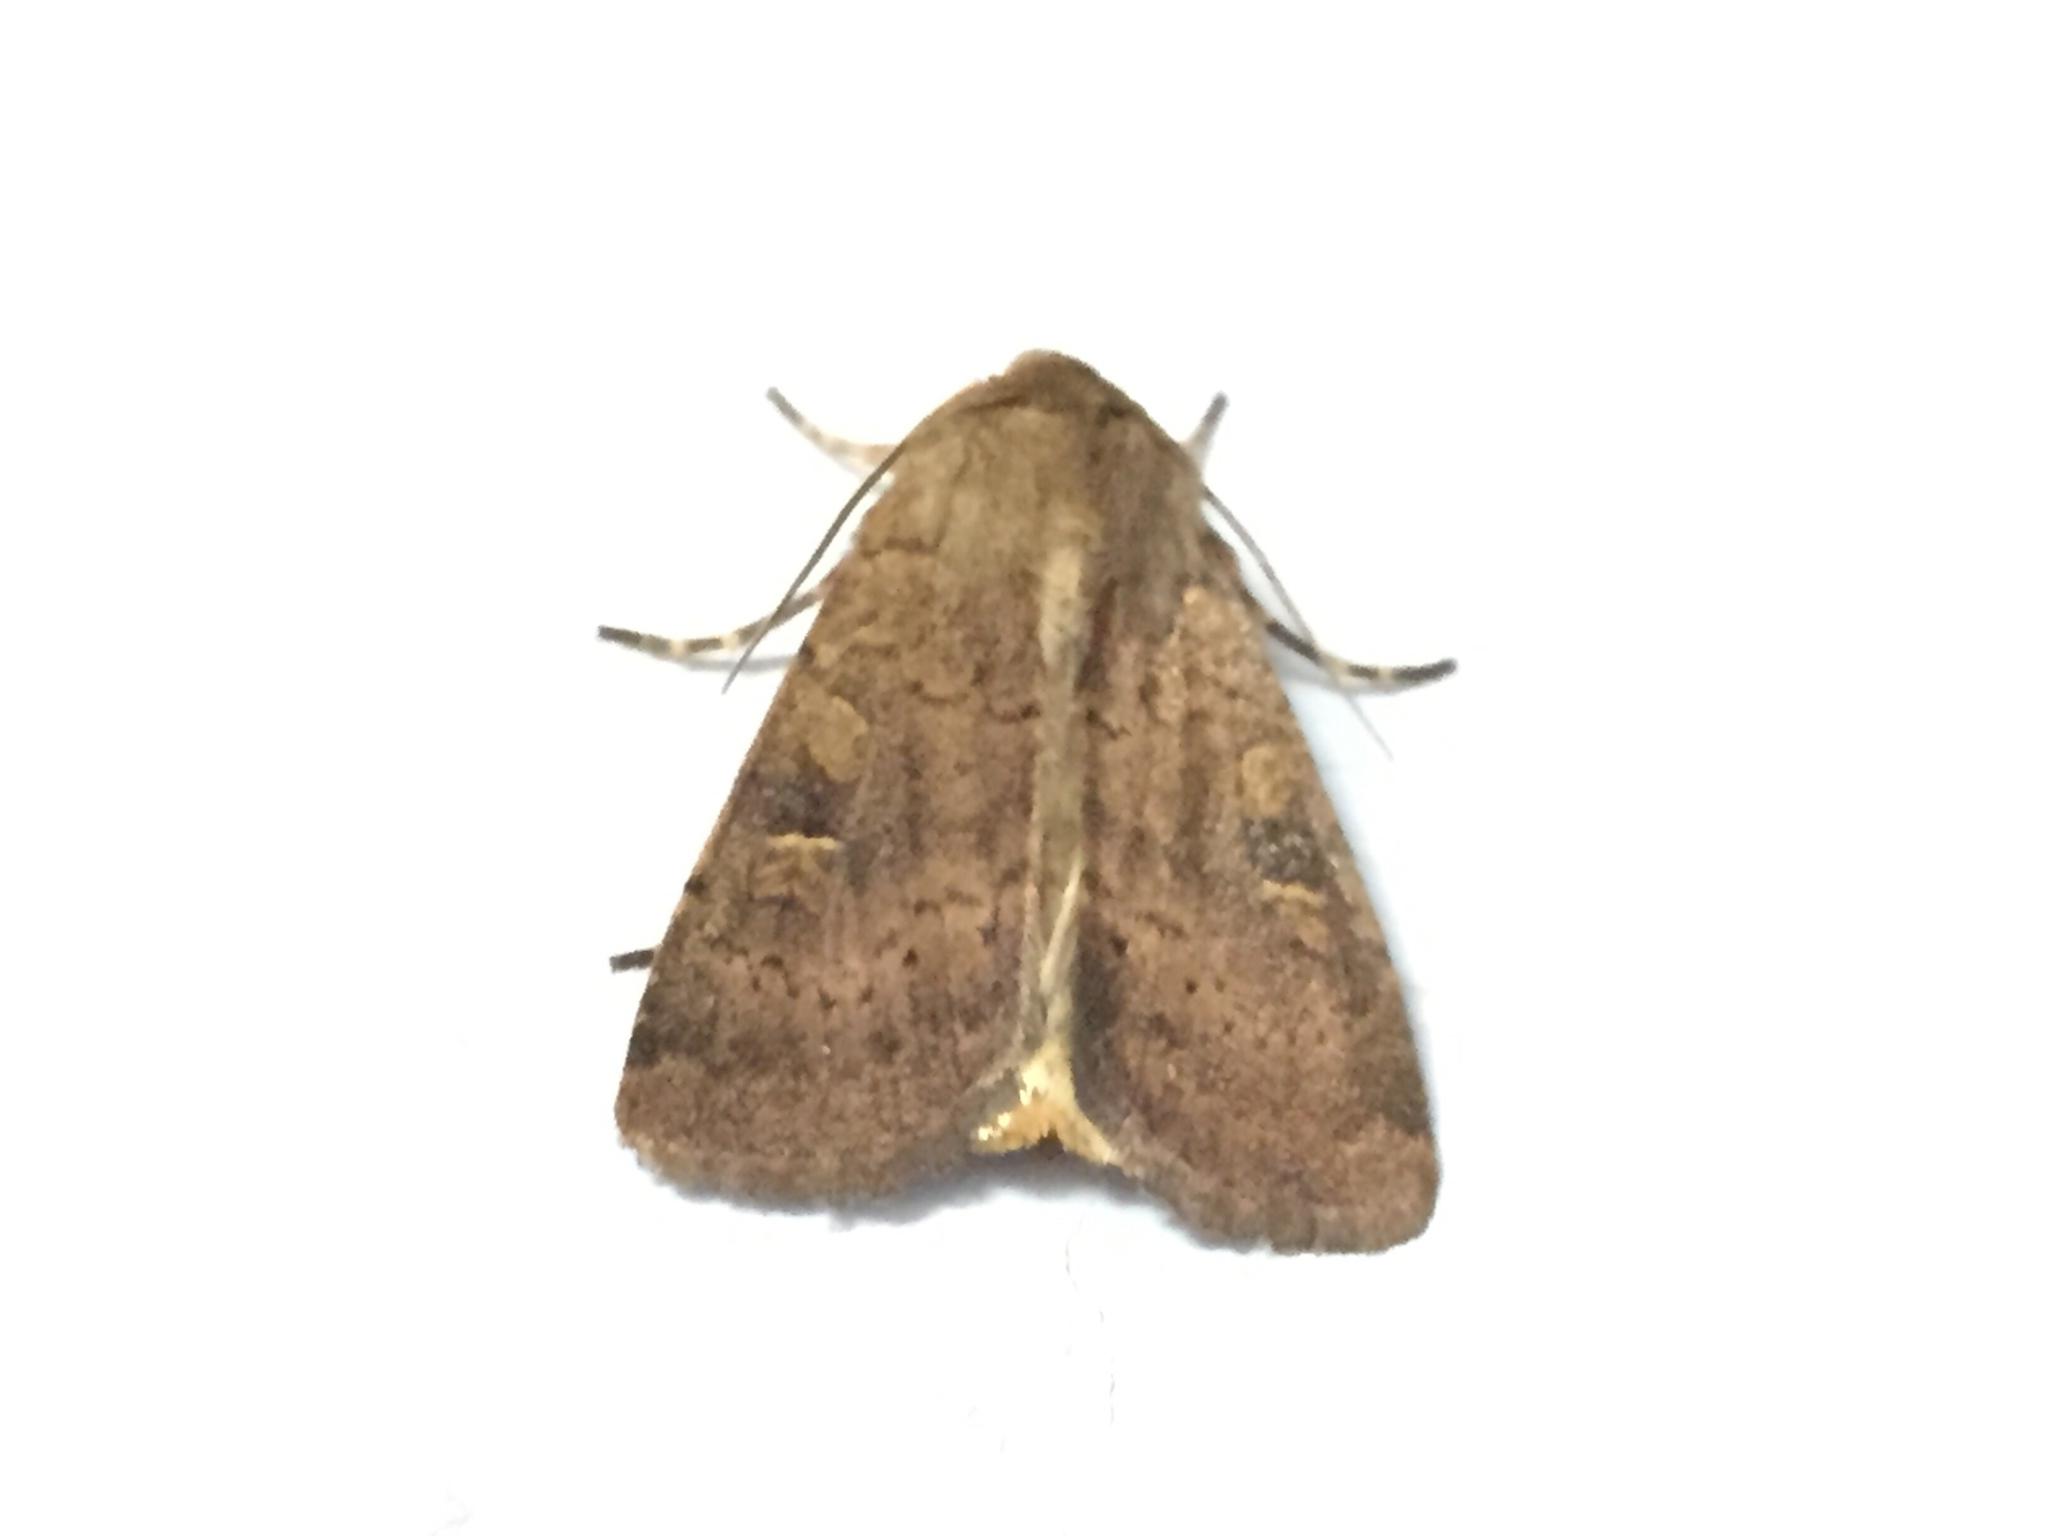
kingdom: Animalia
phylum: Arthropoda
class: Insecta
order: Lepidoptera
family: Noctuidae
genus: Xestia
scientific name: Xestia xanthographa
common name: Square-spot rustic
